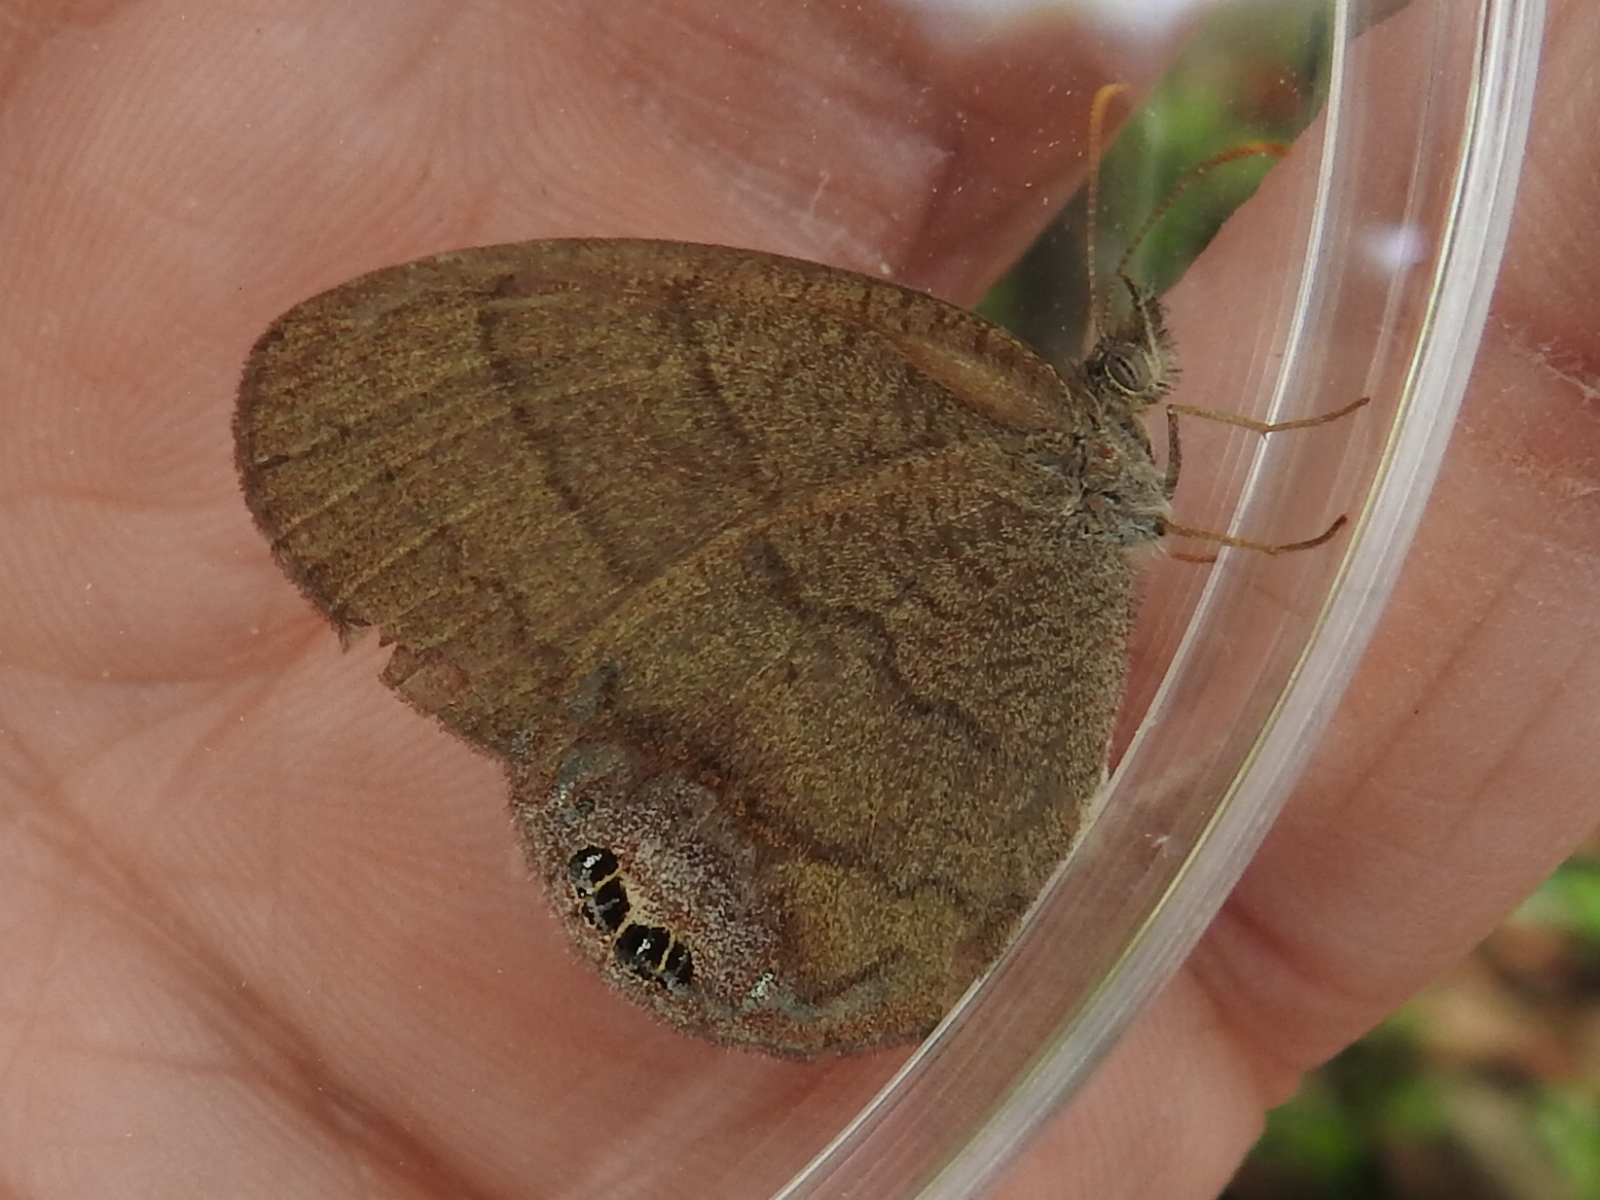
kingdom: Animalia
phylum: Arthropoda
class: Insecta
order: Lepidoptera
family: Nymphalidae
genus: Euptychia
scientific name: Euptychia cornelius
